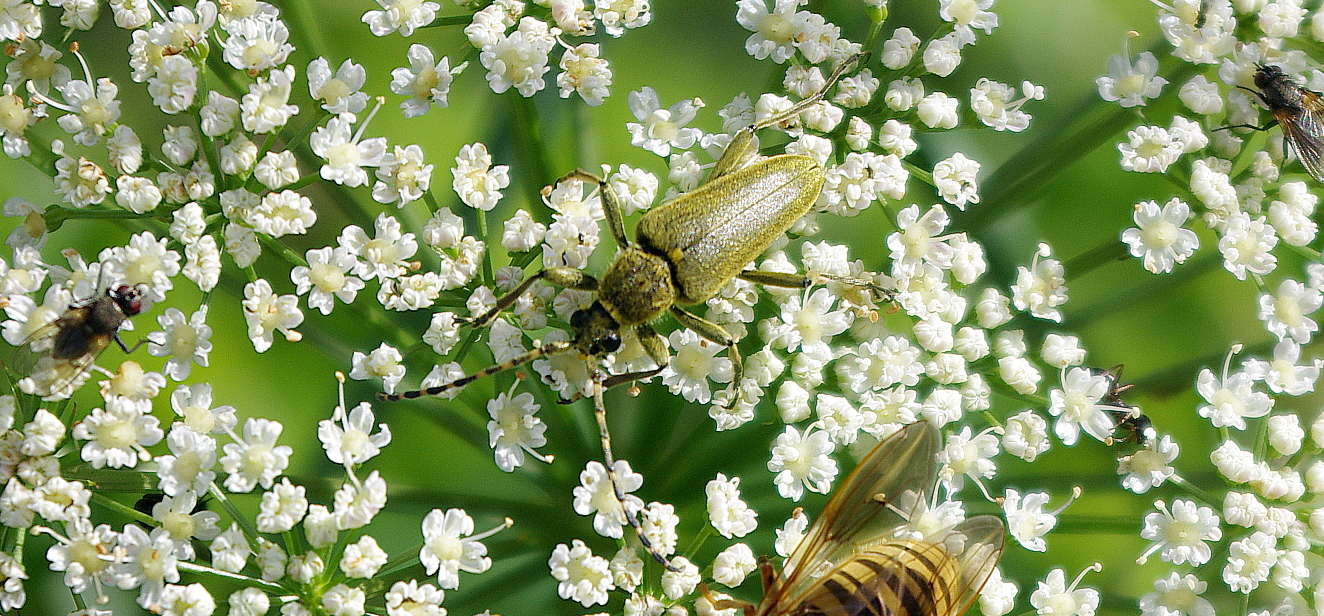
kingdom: Animalia
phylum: Arthropoda
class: Insecta
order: Coleoptera
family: Cerambycidae
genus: Lepturobosca
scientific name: Lepturobosca virens
